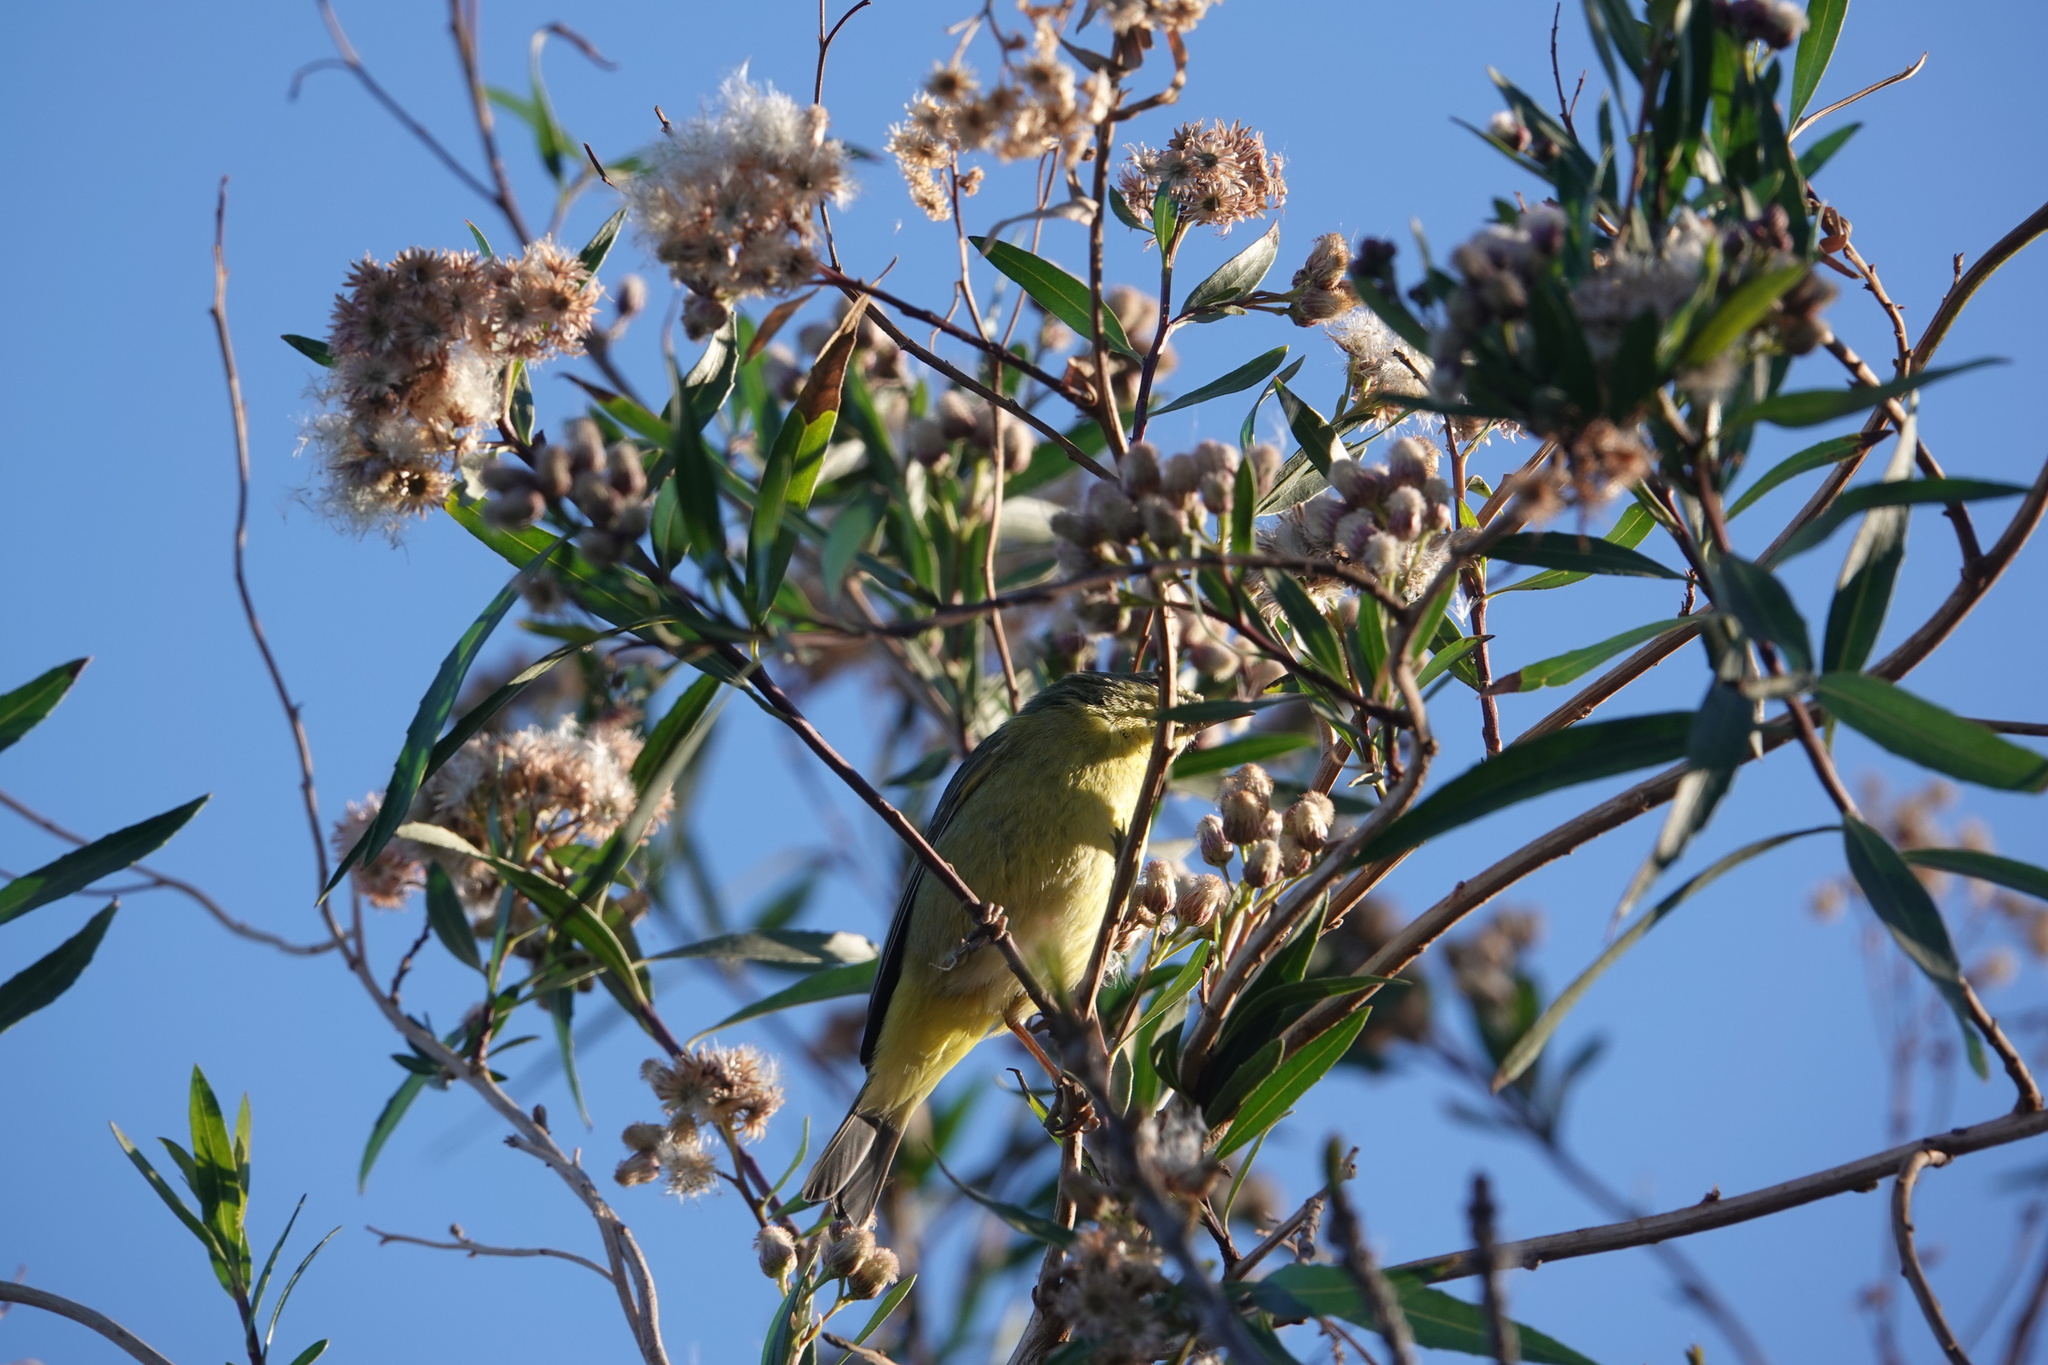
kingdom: Animalia
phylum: Chordata
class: Aves
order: Passeriformes
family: Parulidae
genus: Leiothlypis
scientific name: Leiothlypis celata
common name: Orange-crowned warbler
